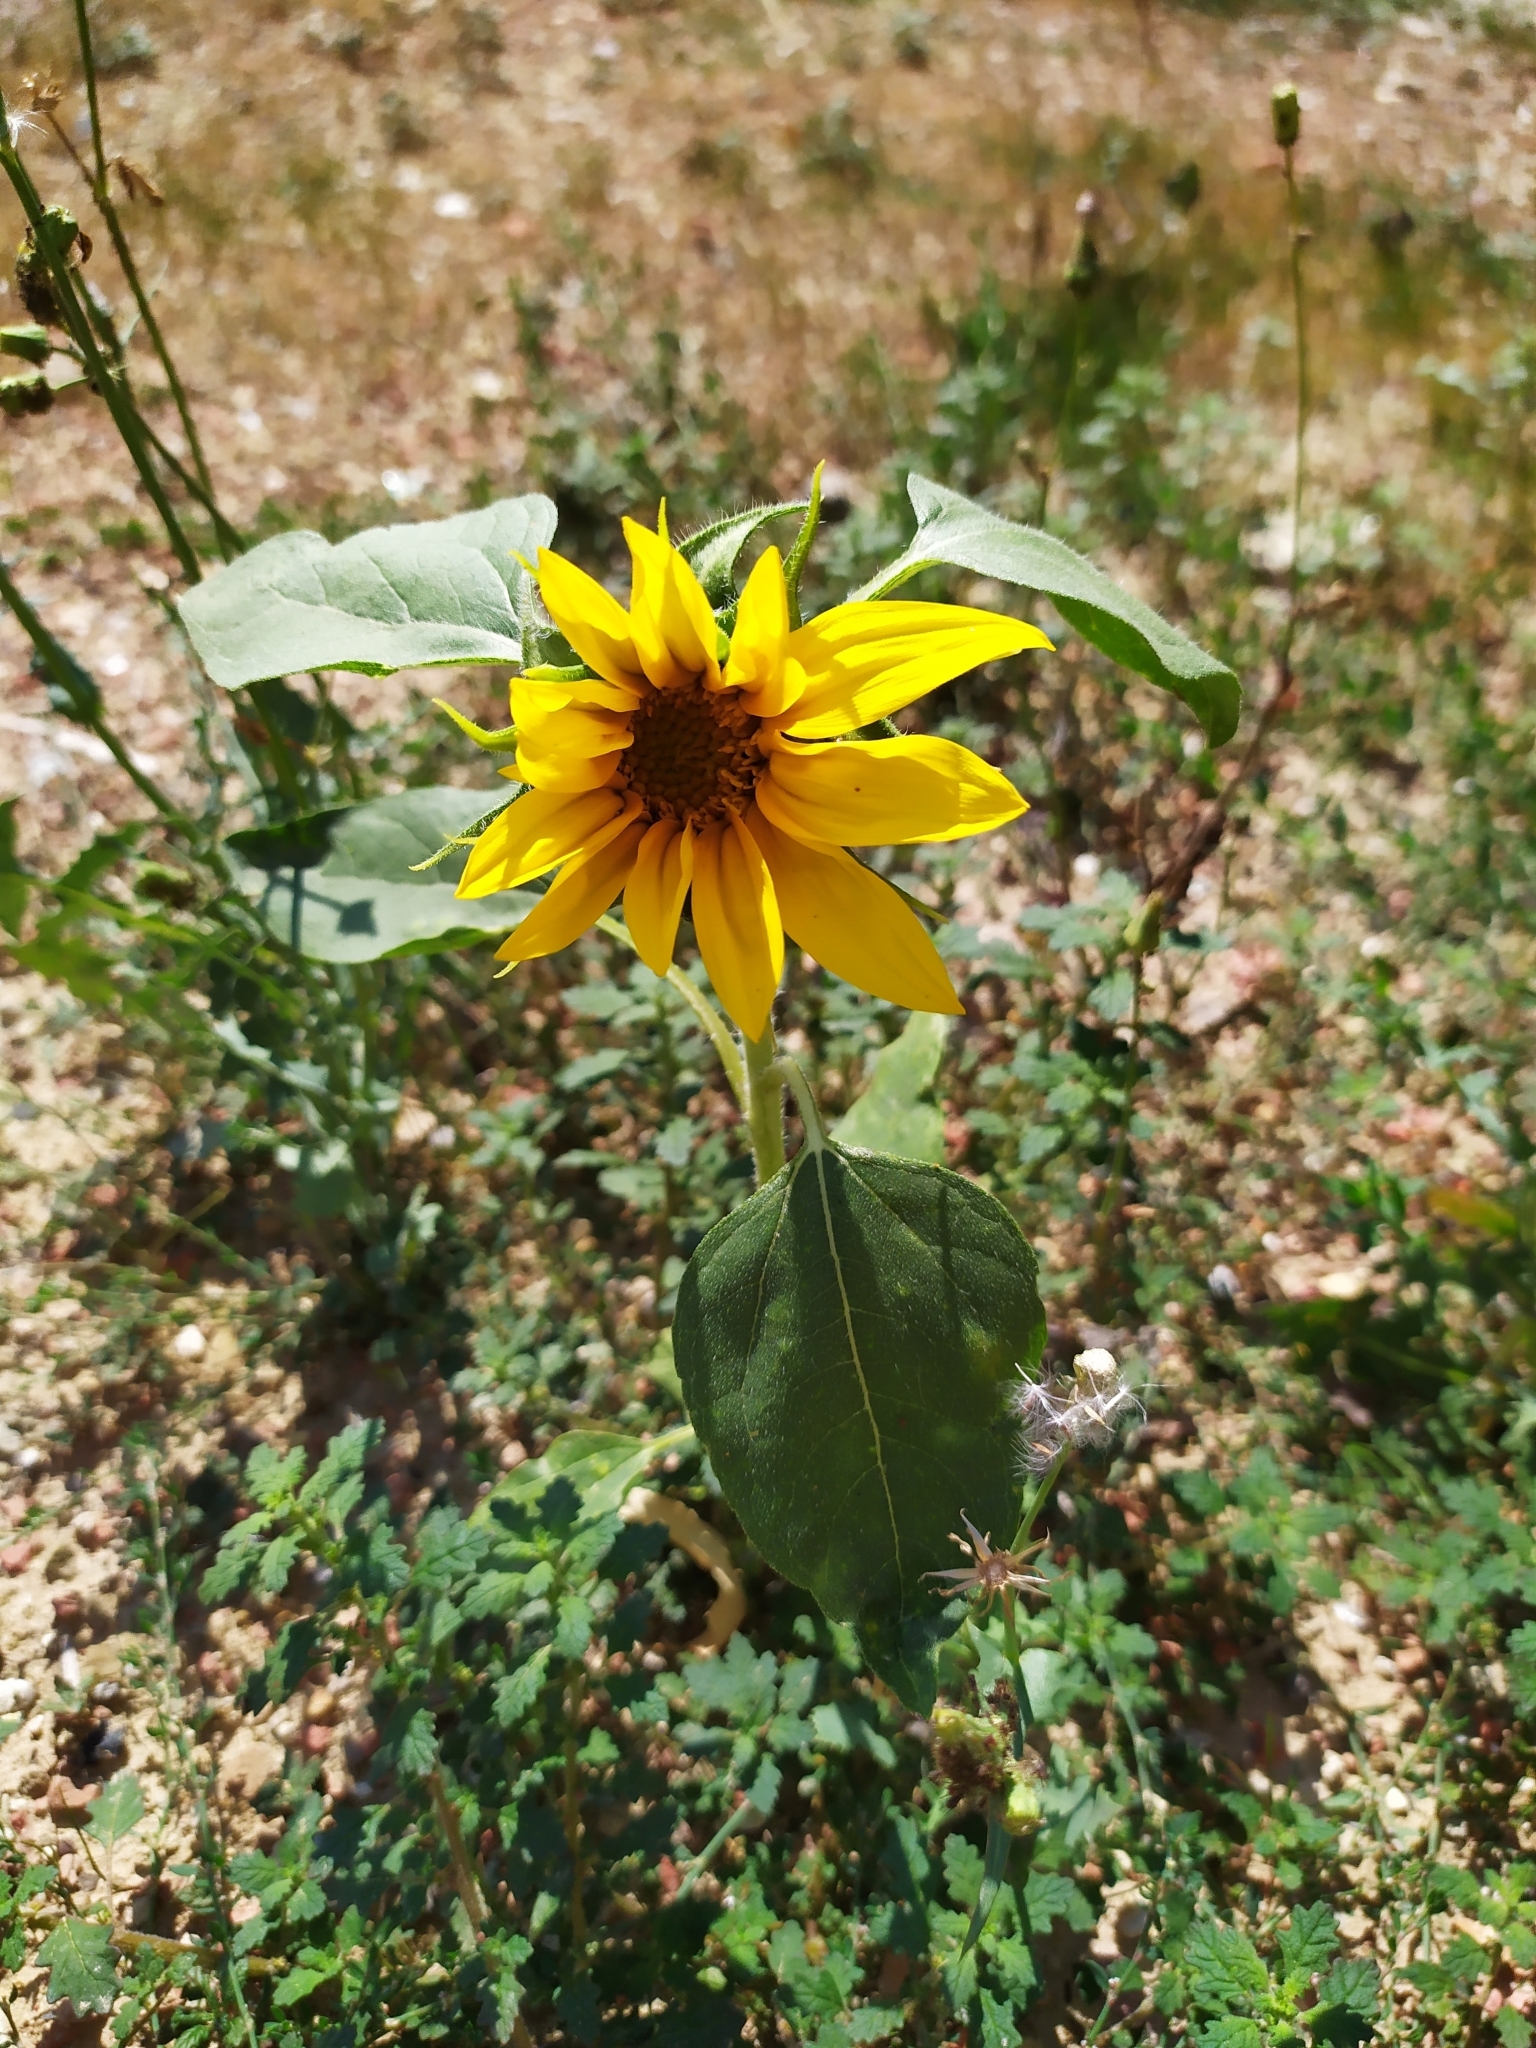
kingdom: Plantae
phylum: Tracheophyta
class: Magnoliopsida
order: Asterales
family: Asteraceae
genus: Helianthus
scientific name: Helianthus annuus
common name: Sunflower
